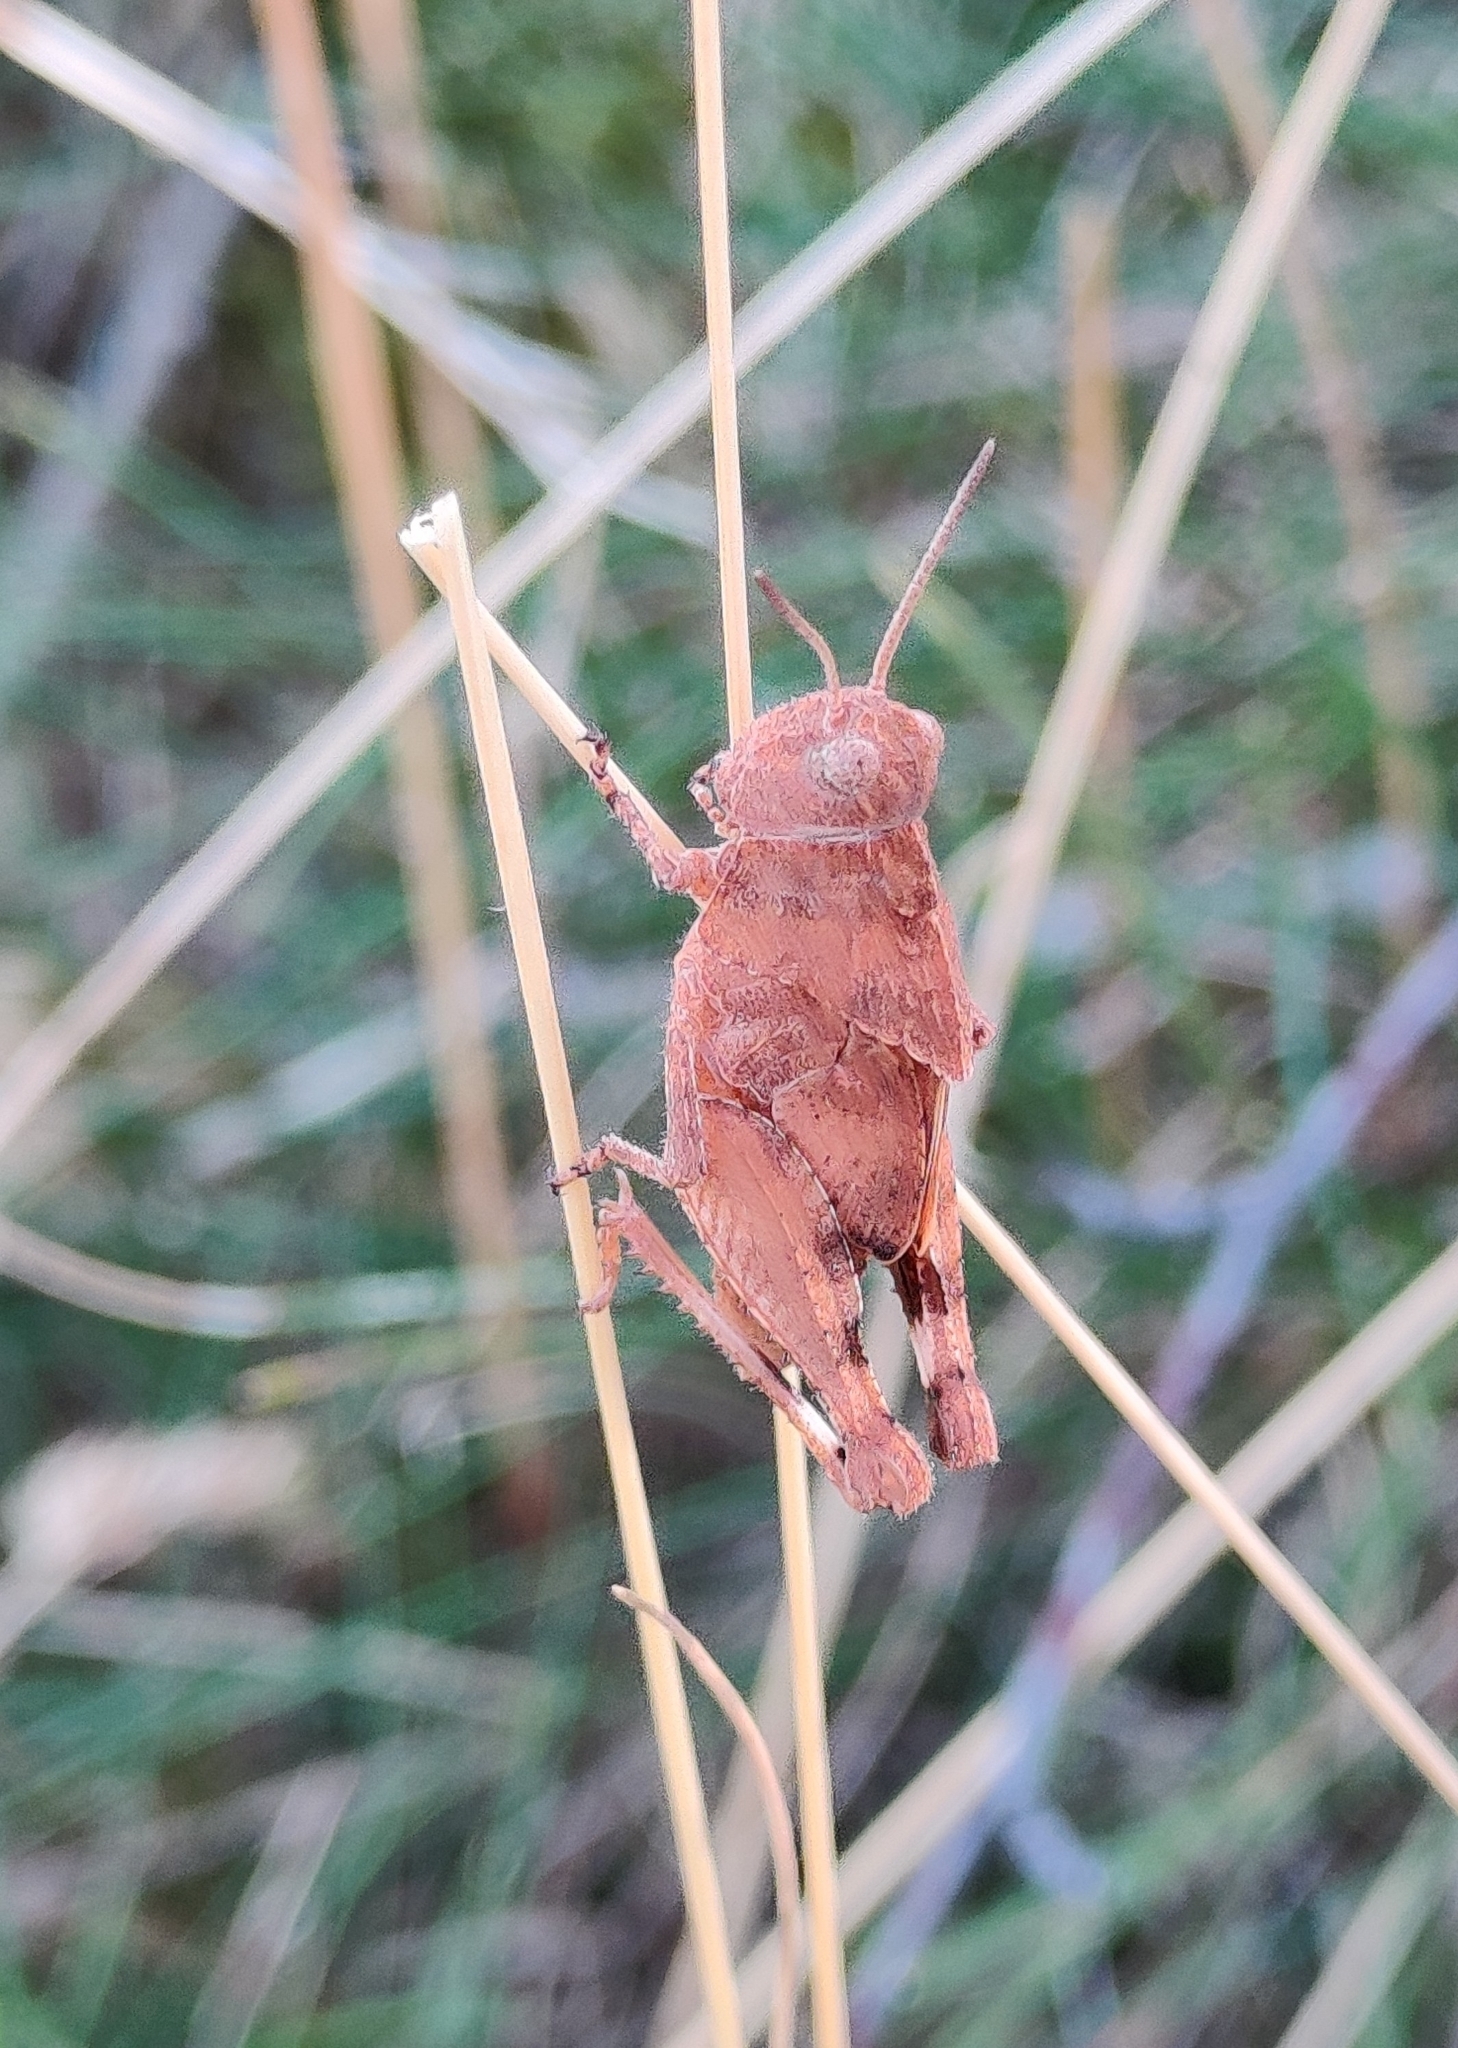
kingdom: Animalia
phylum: Arthropoda
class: Insecta
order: Orthoptera
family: Acrididae
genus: Oedipoda
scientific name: Oedipoda caerulescens
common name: Blue-winged grasshopper
